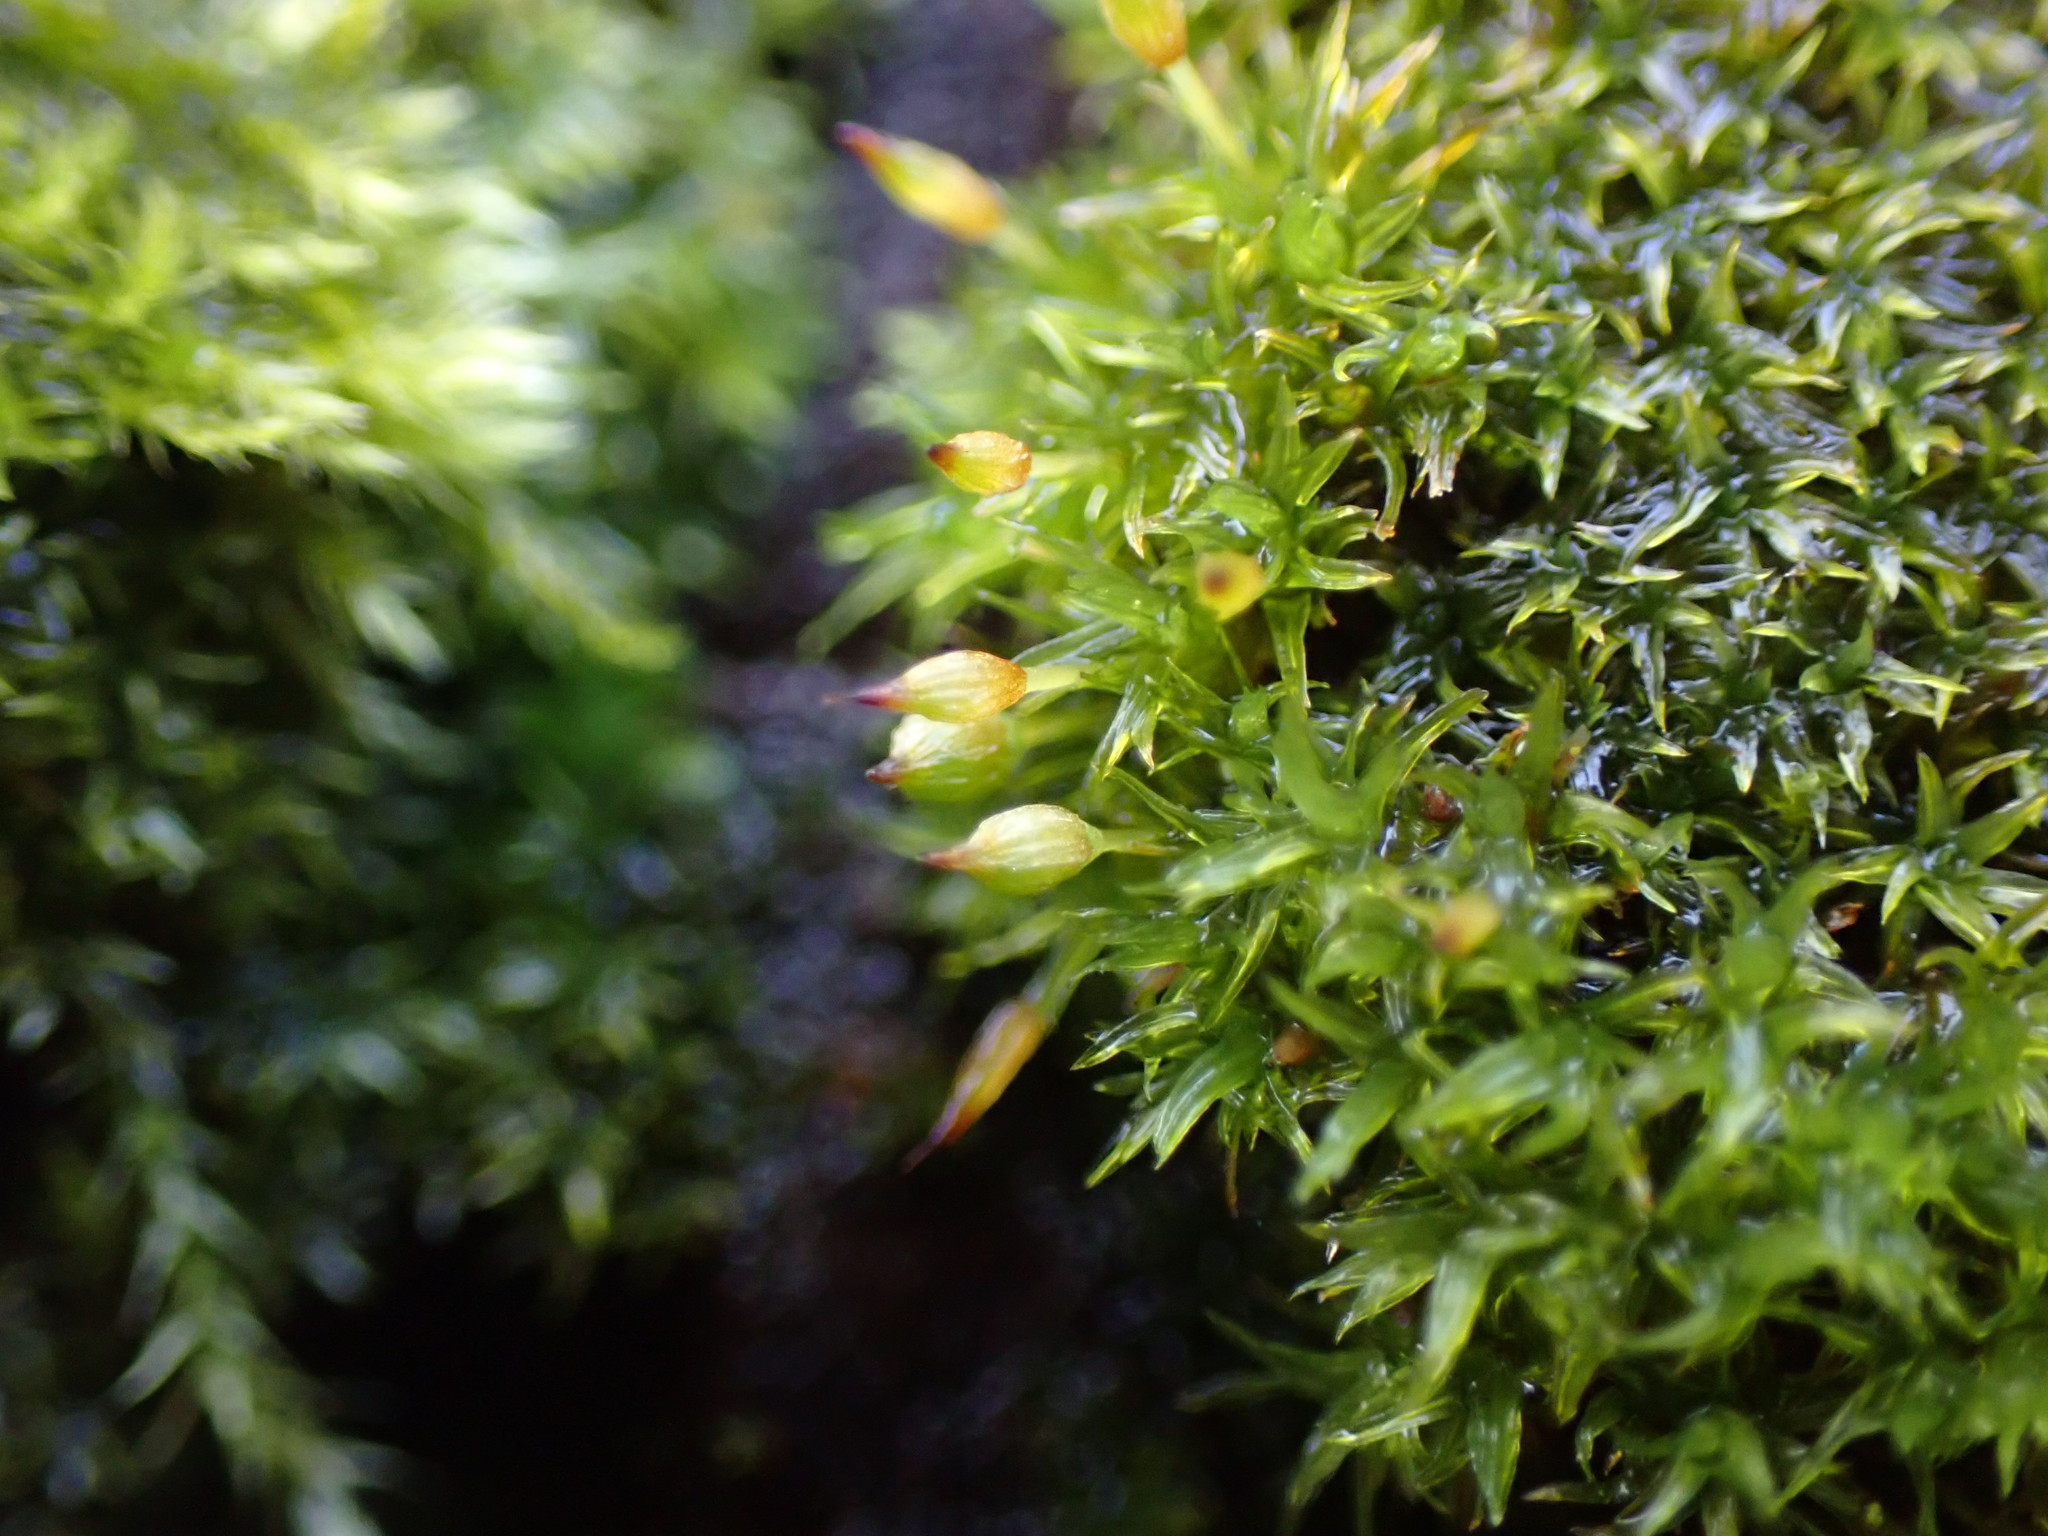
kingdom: Plantae
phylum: Bryophyta
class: Bryopsida
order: Orthotrichales
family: Orthotrichaceae
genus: Lewinskya
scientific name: Lewinskya speciosa
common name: Showy bristle moss
